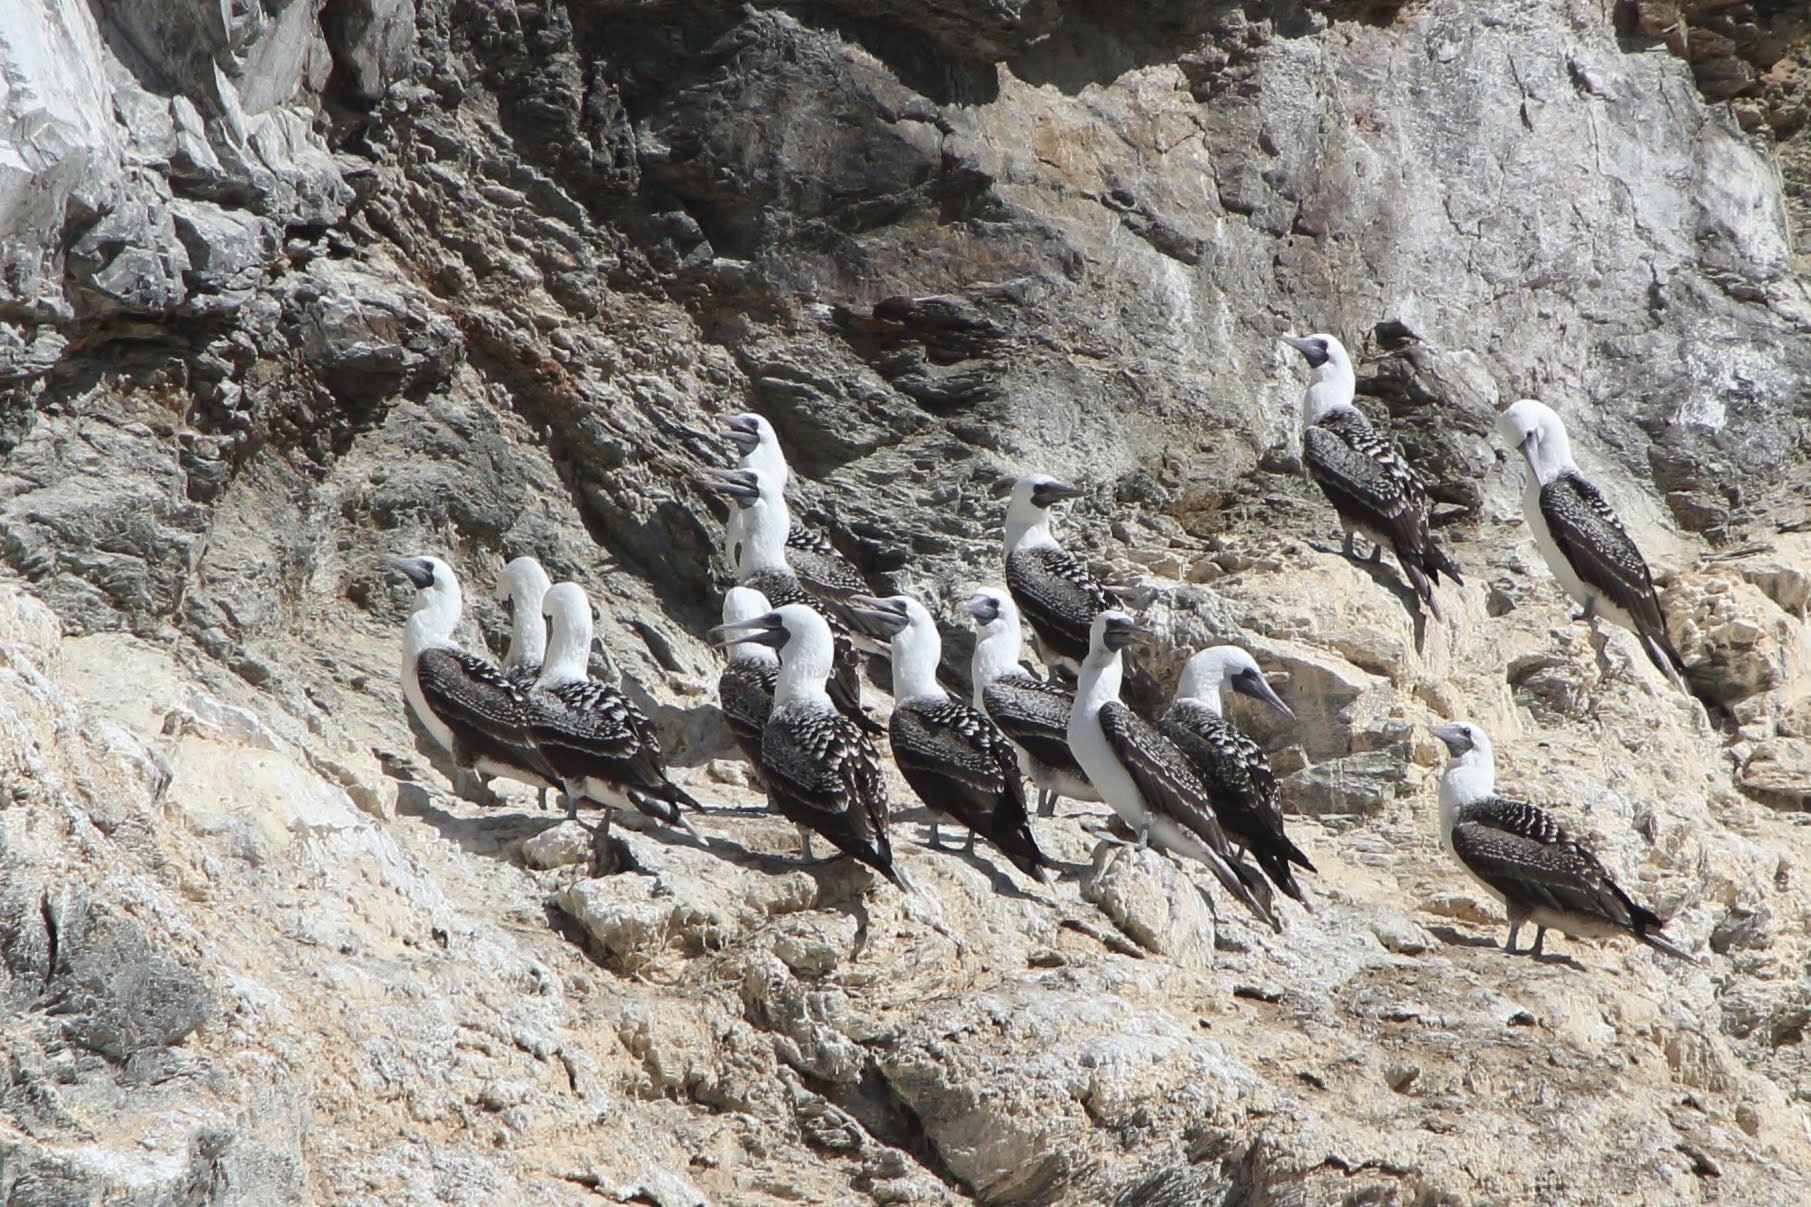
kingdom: Animalia
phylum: Chordata
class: Aves
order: Suliformes
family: Sulidae
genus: Sula
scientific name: Sula variegata
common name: Peruvian booby
